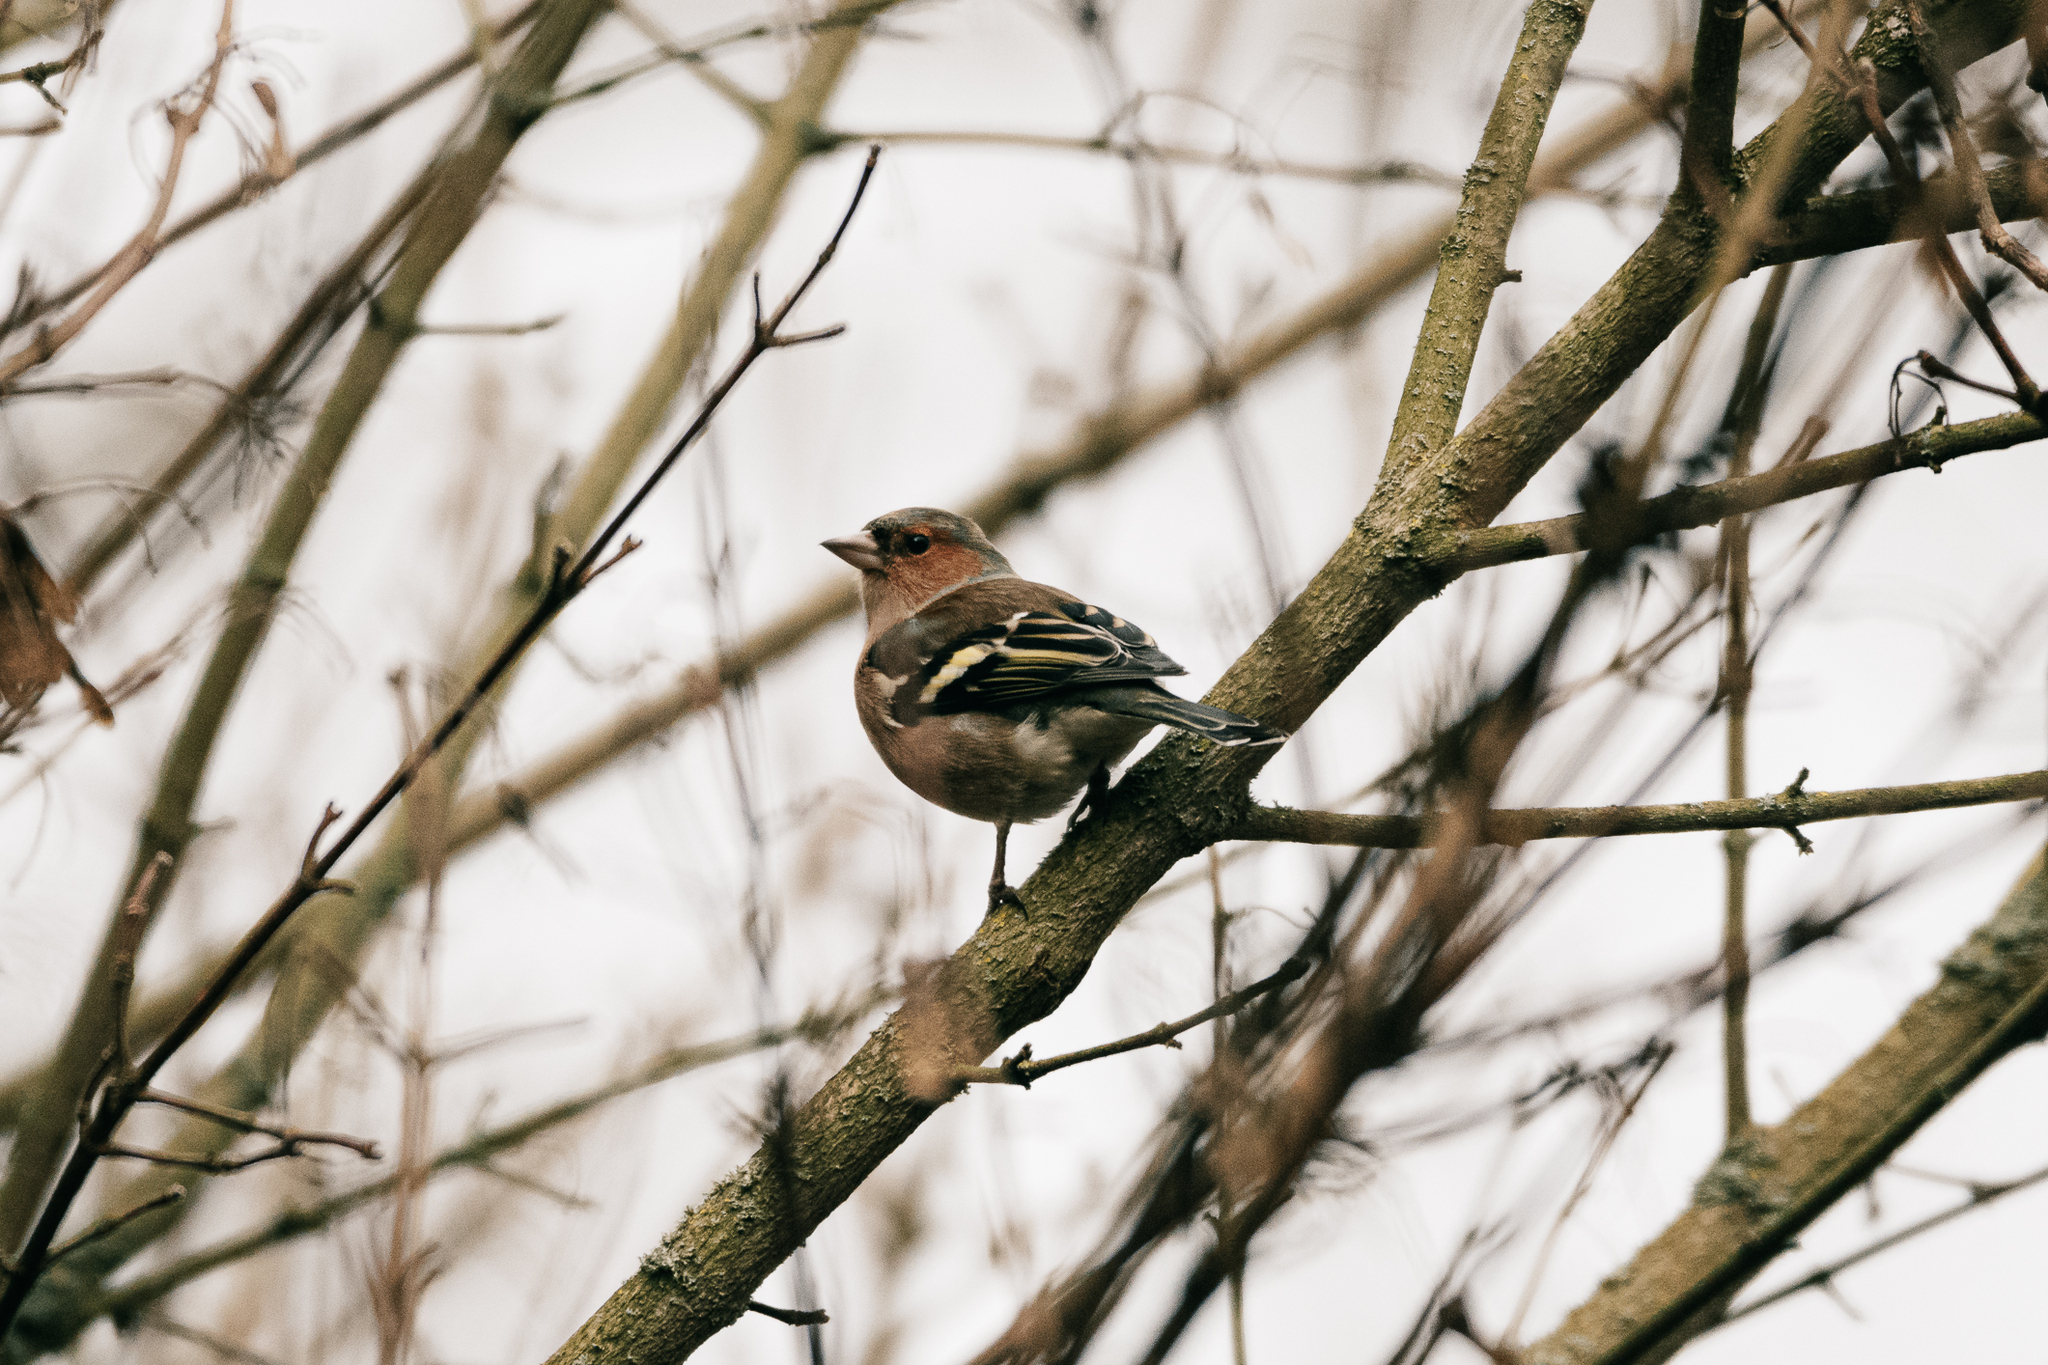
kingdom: Animalia
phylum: Chordata
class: Aves
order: Passeriformes
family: Fringillidae
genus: Fringilla
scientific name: Fringilla coelebs
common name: Common chaffinch
